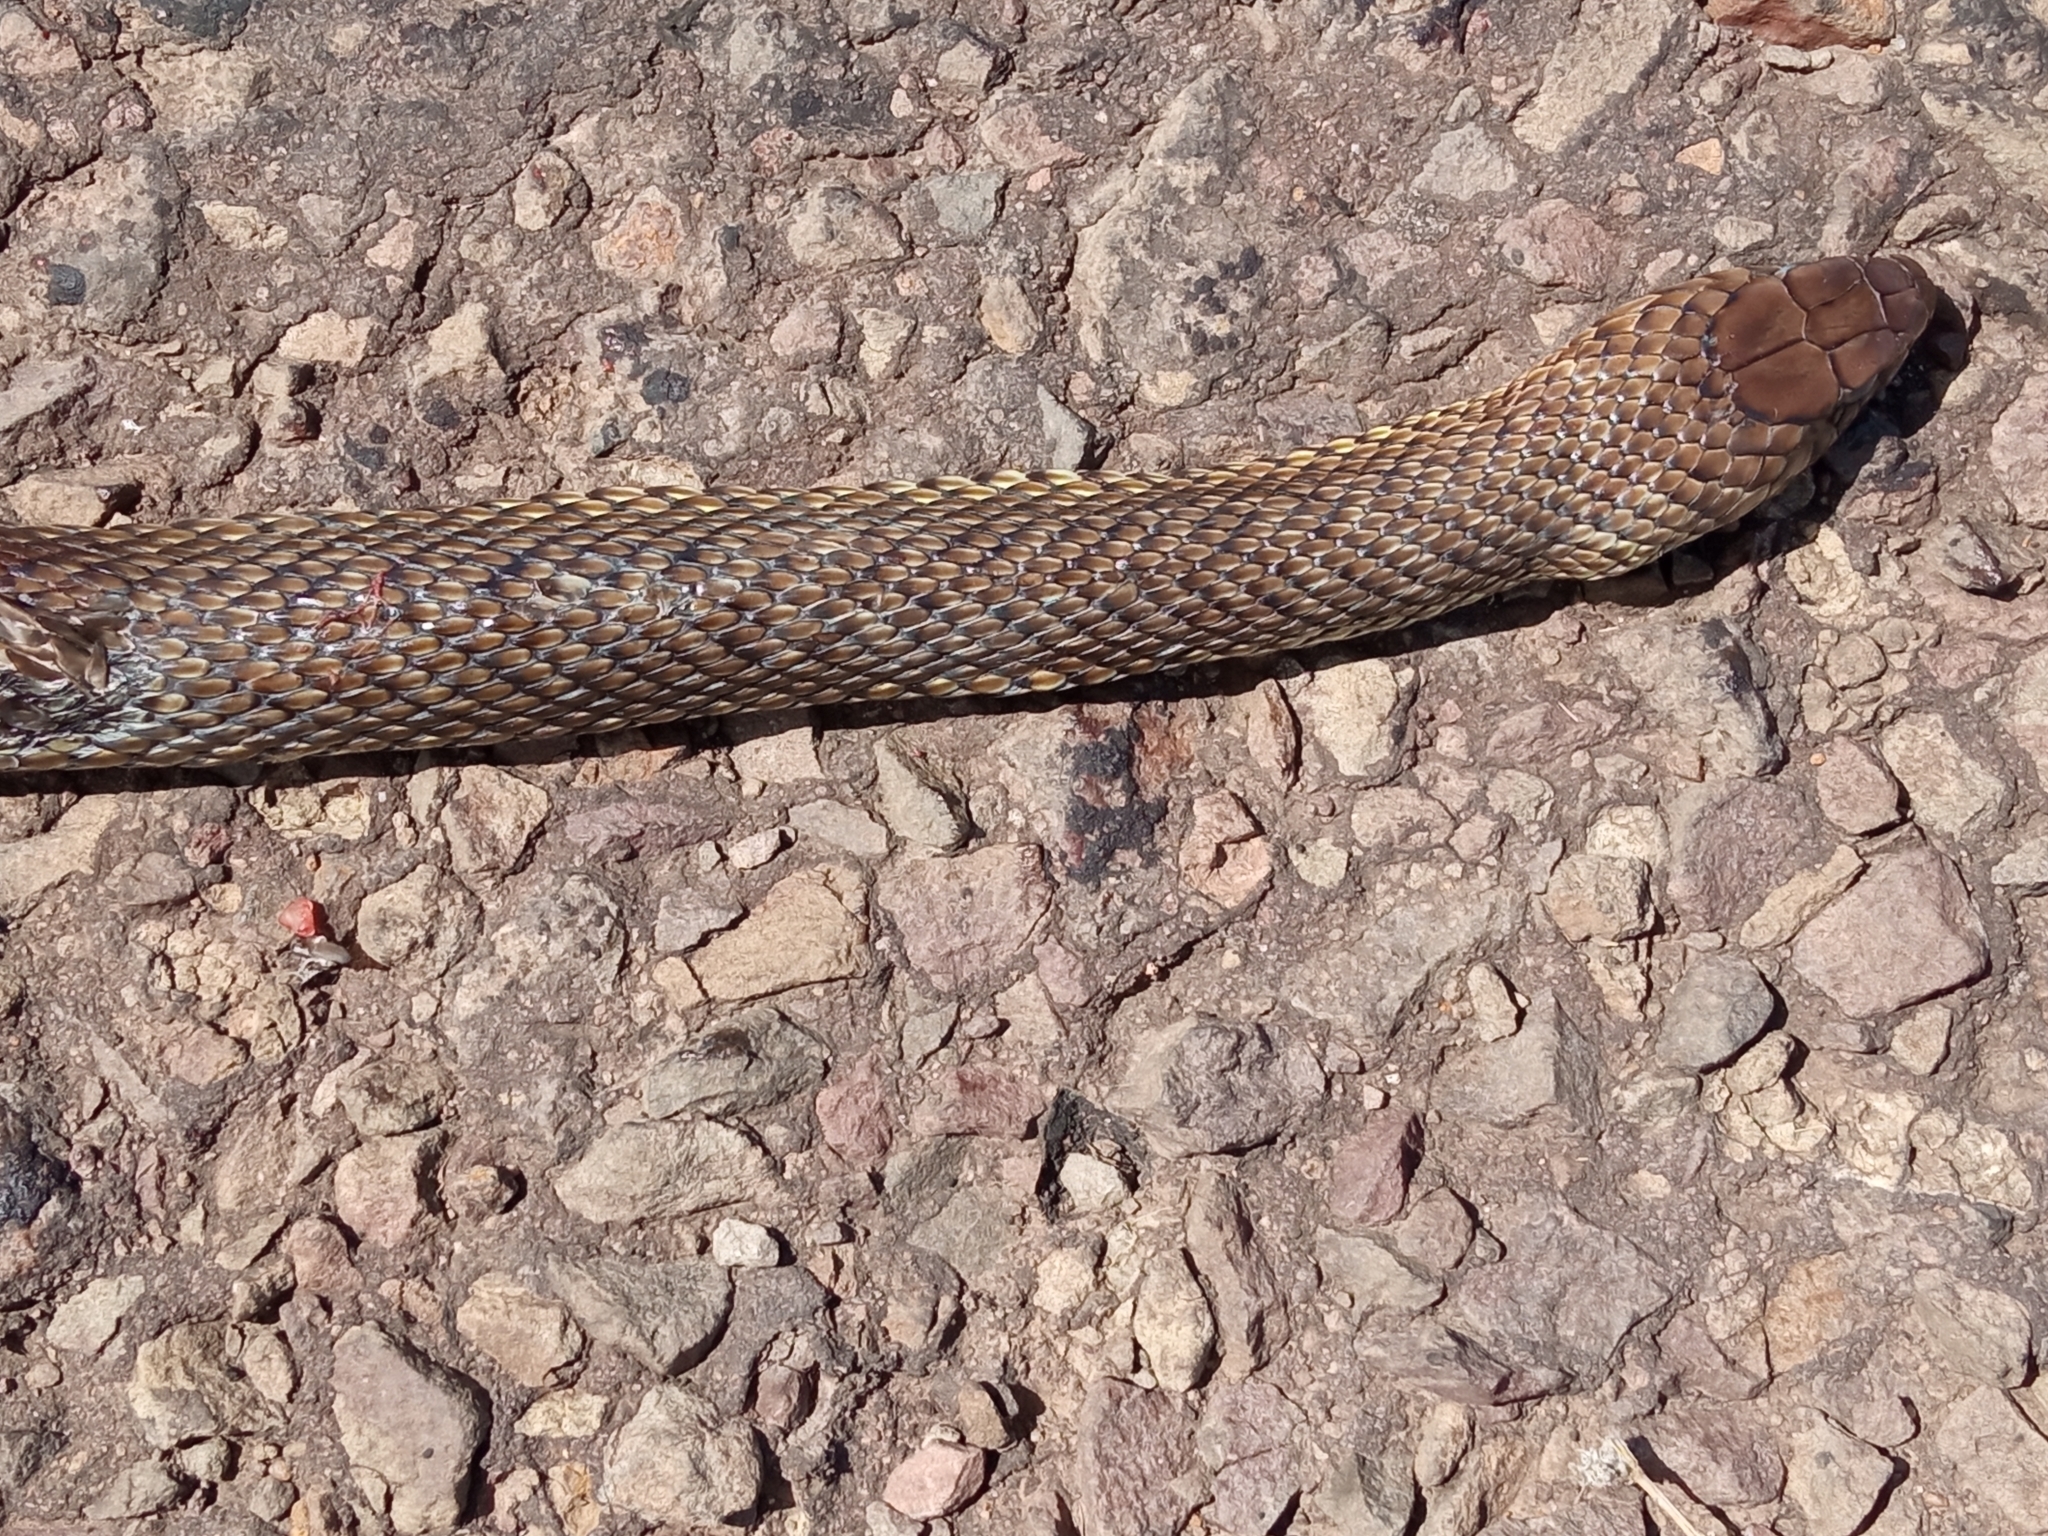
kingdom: Animalia
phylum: Chordata
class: Squamata
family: Colubridae
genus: Philodryas
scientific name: Philodryas patagoniensis
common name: Patagonia green racer
